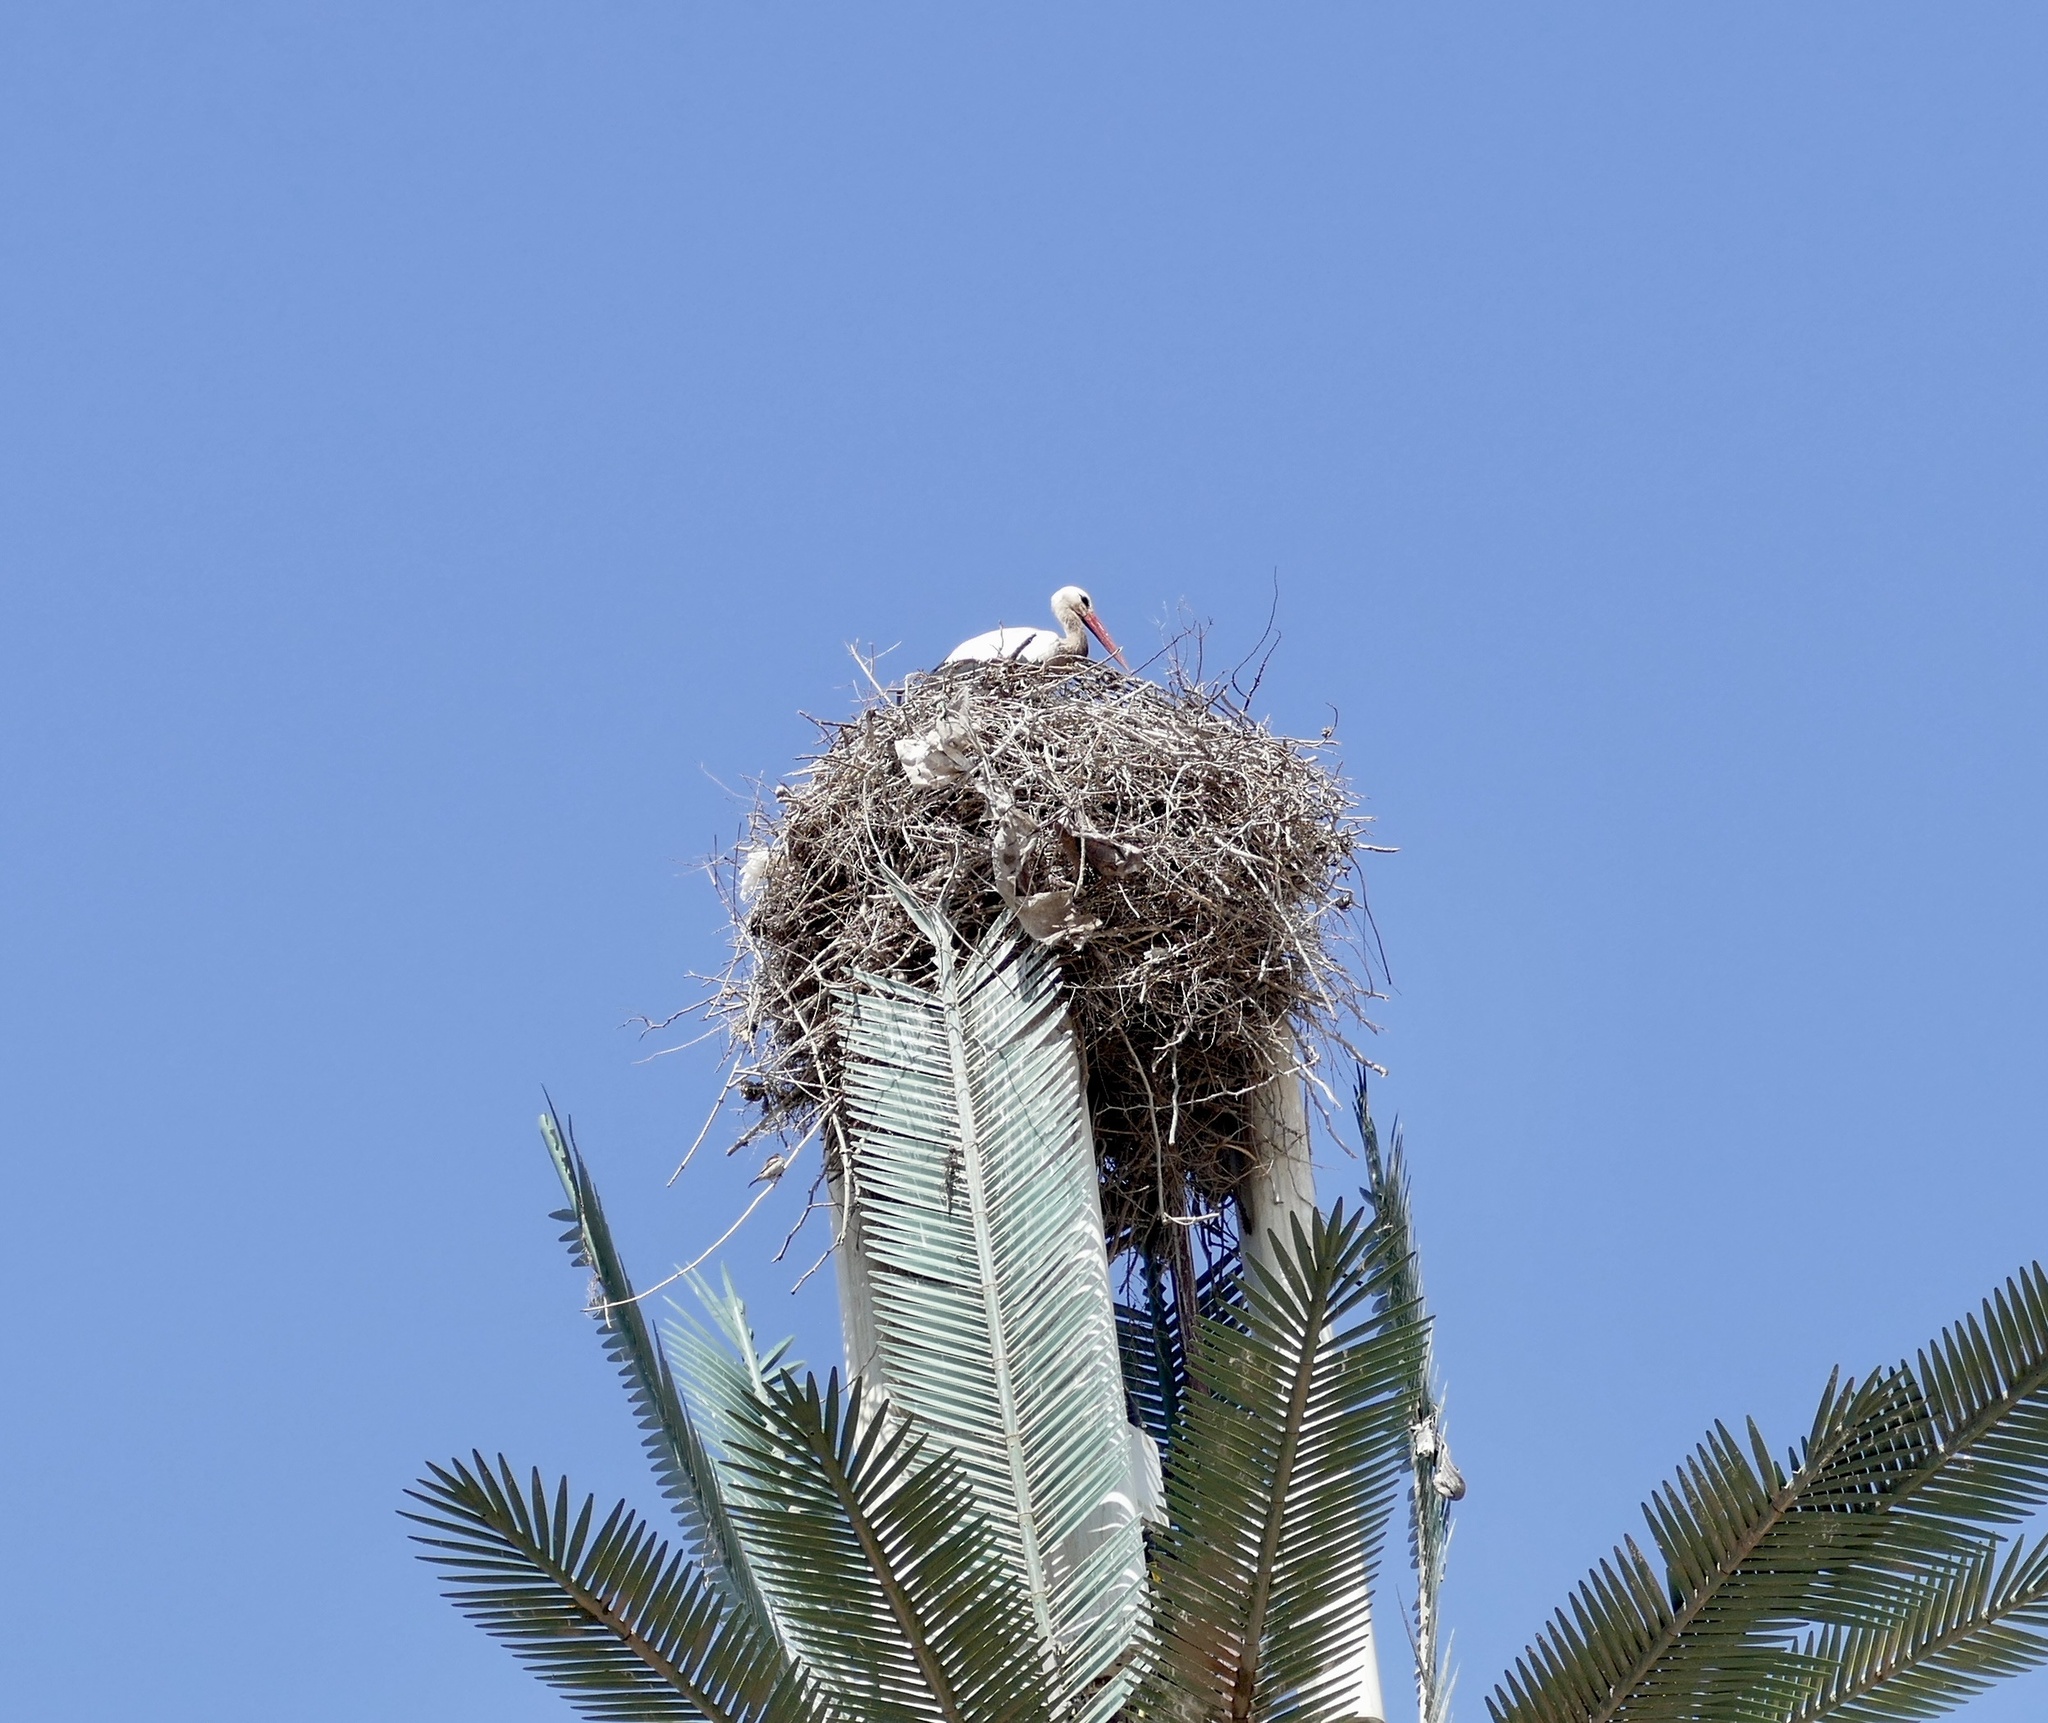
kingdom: Animalia
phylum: Chordata
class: Aves
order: Ciconiiformes
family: Ciconiidae
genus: Ciconia
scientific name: Ciconia ciconia
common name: White stork
